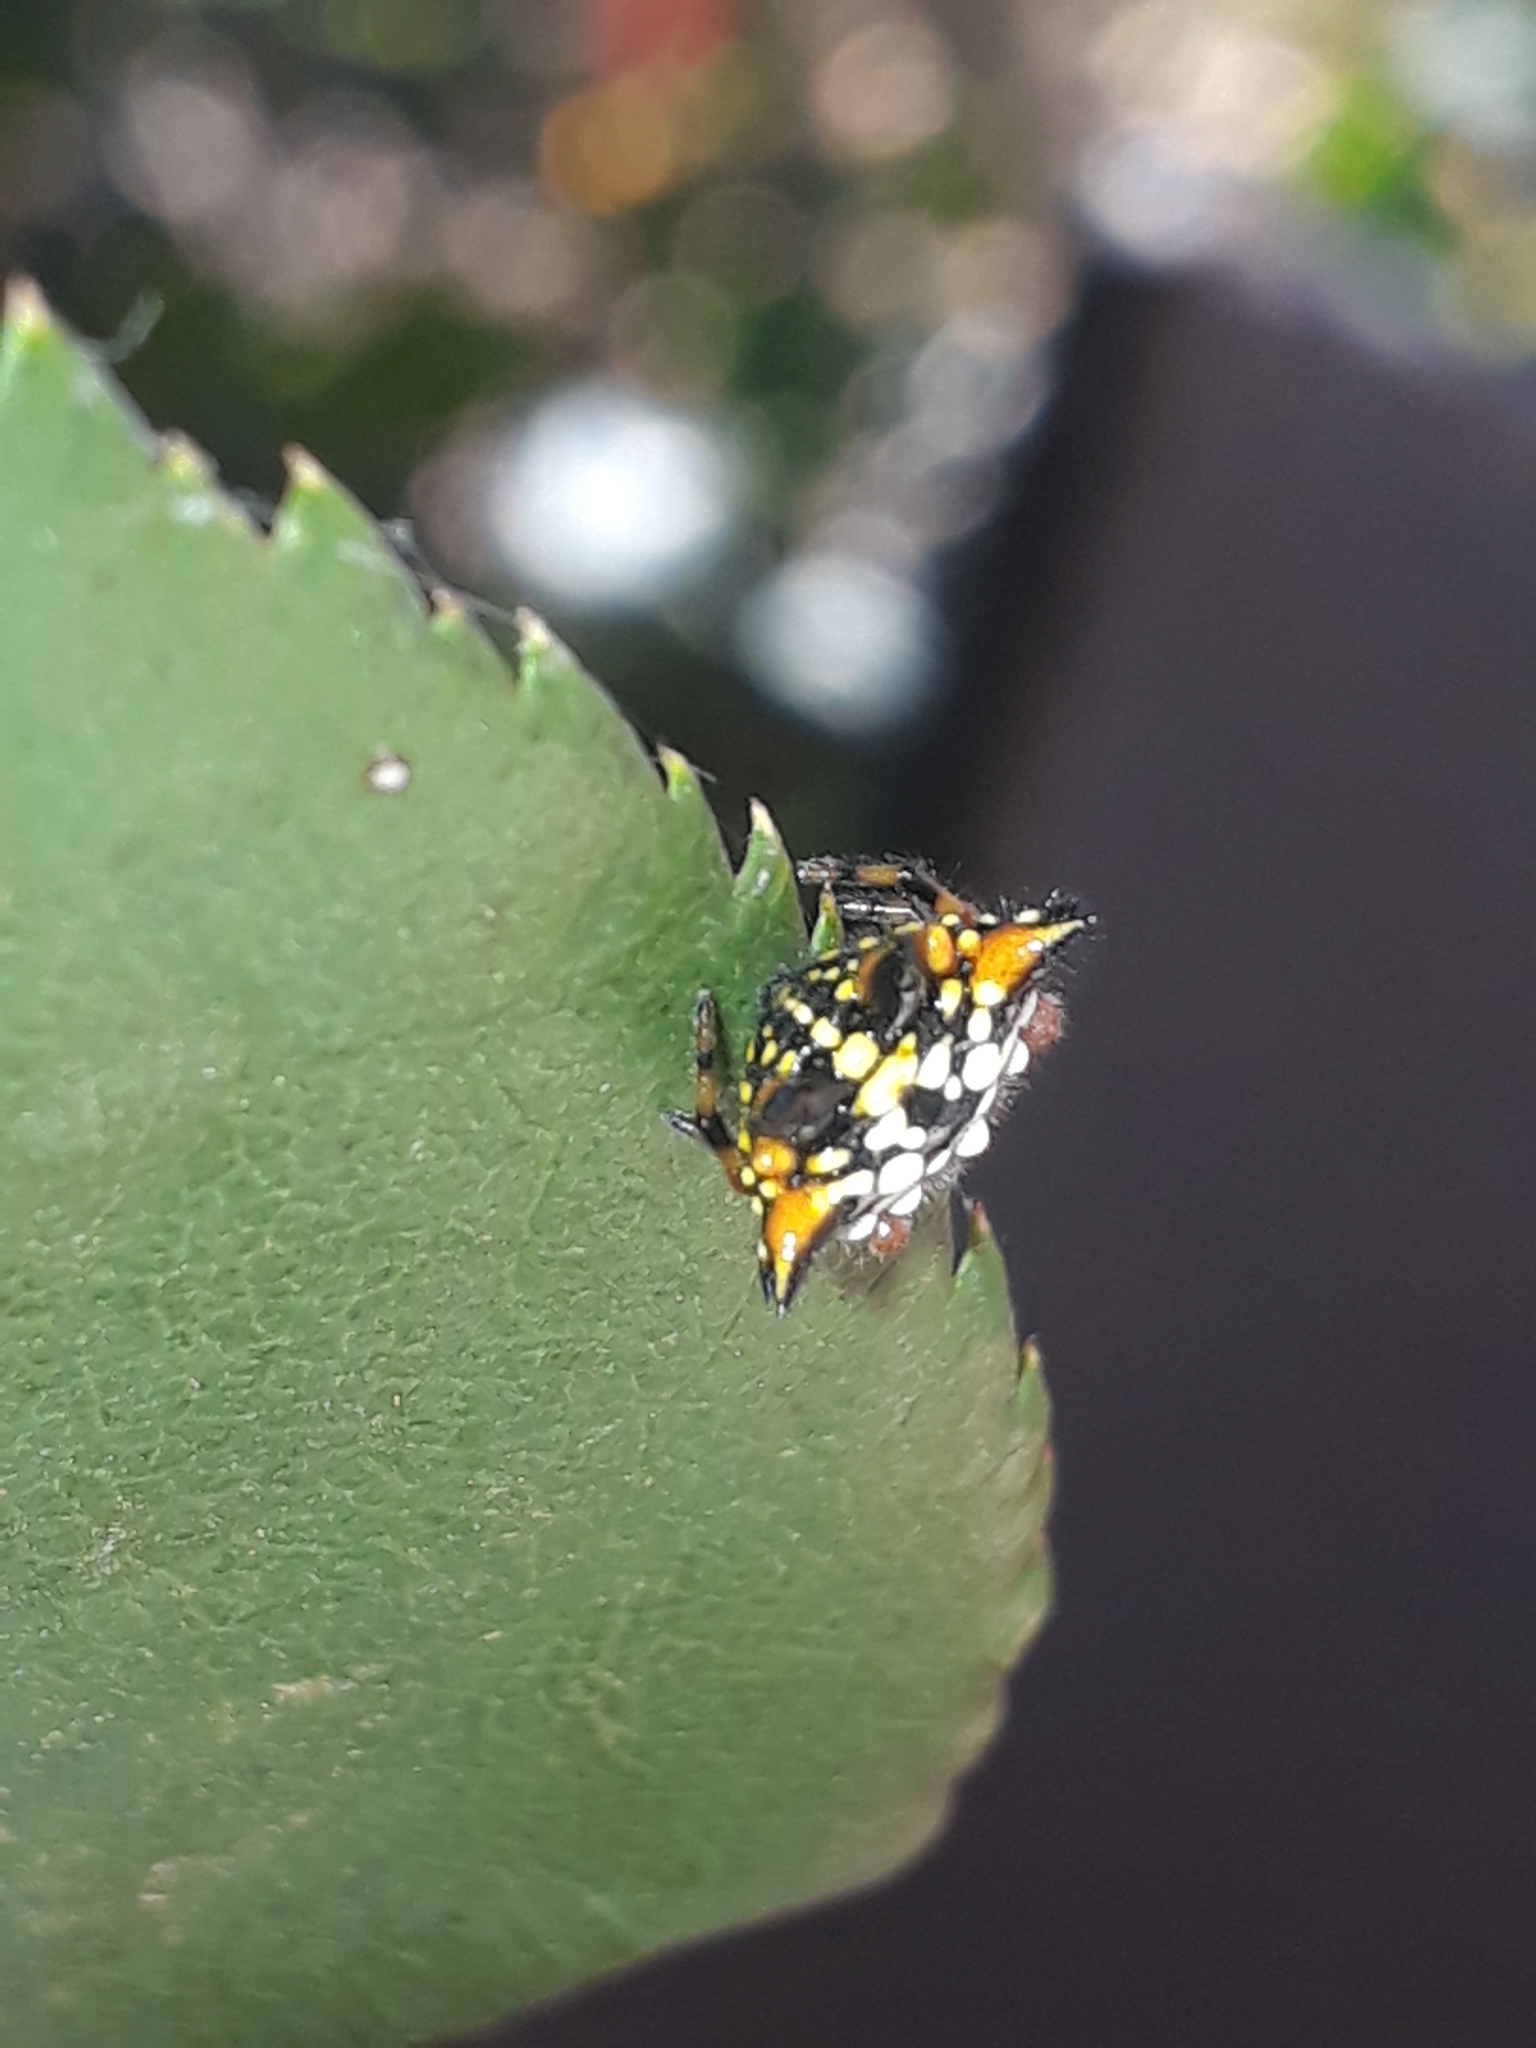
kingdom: Animalia
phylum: Arthropoda
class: Arachnida
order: Araneae
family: Araneidae
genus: Austracantha
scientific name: Austracantha minax
